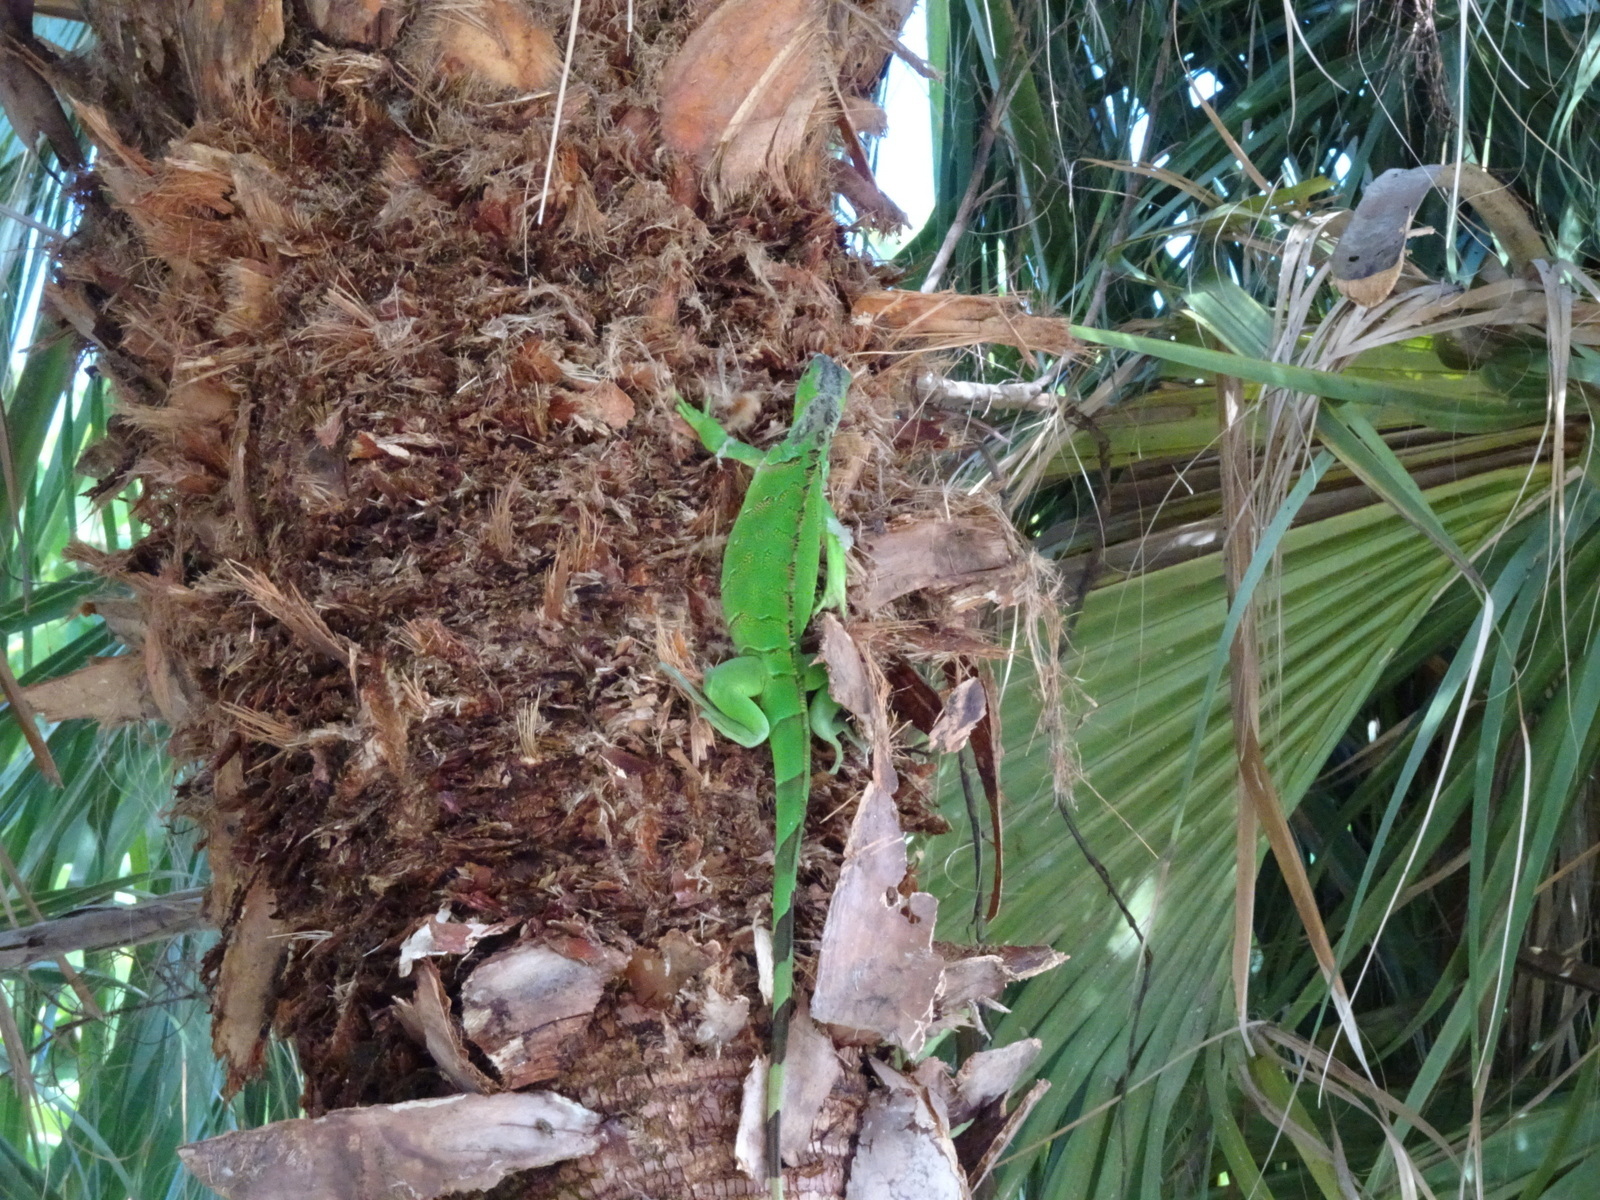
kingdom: Animalia
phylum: Chordata
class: Squamata
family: Iguanidae
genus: Iguana
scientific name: Iguana iguana
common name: Green iguana
